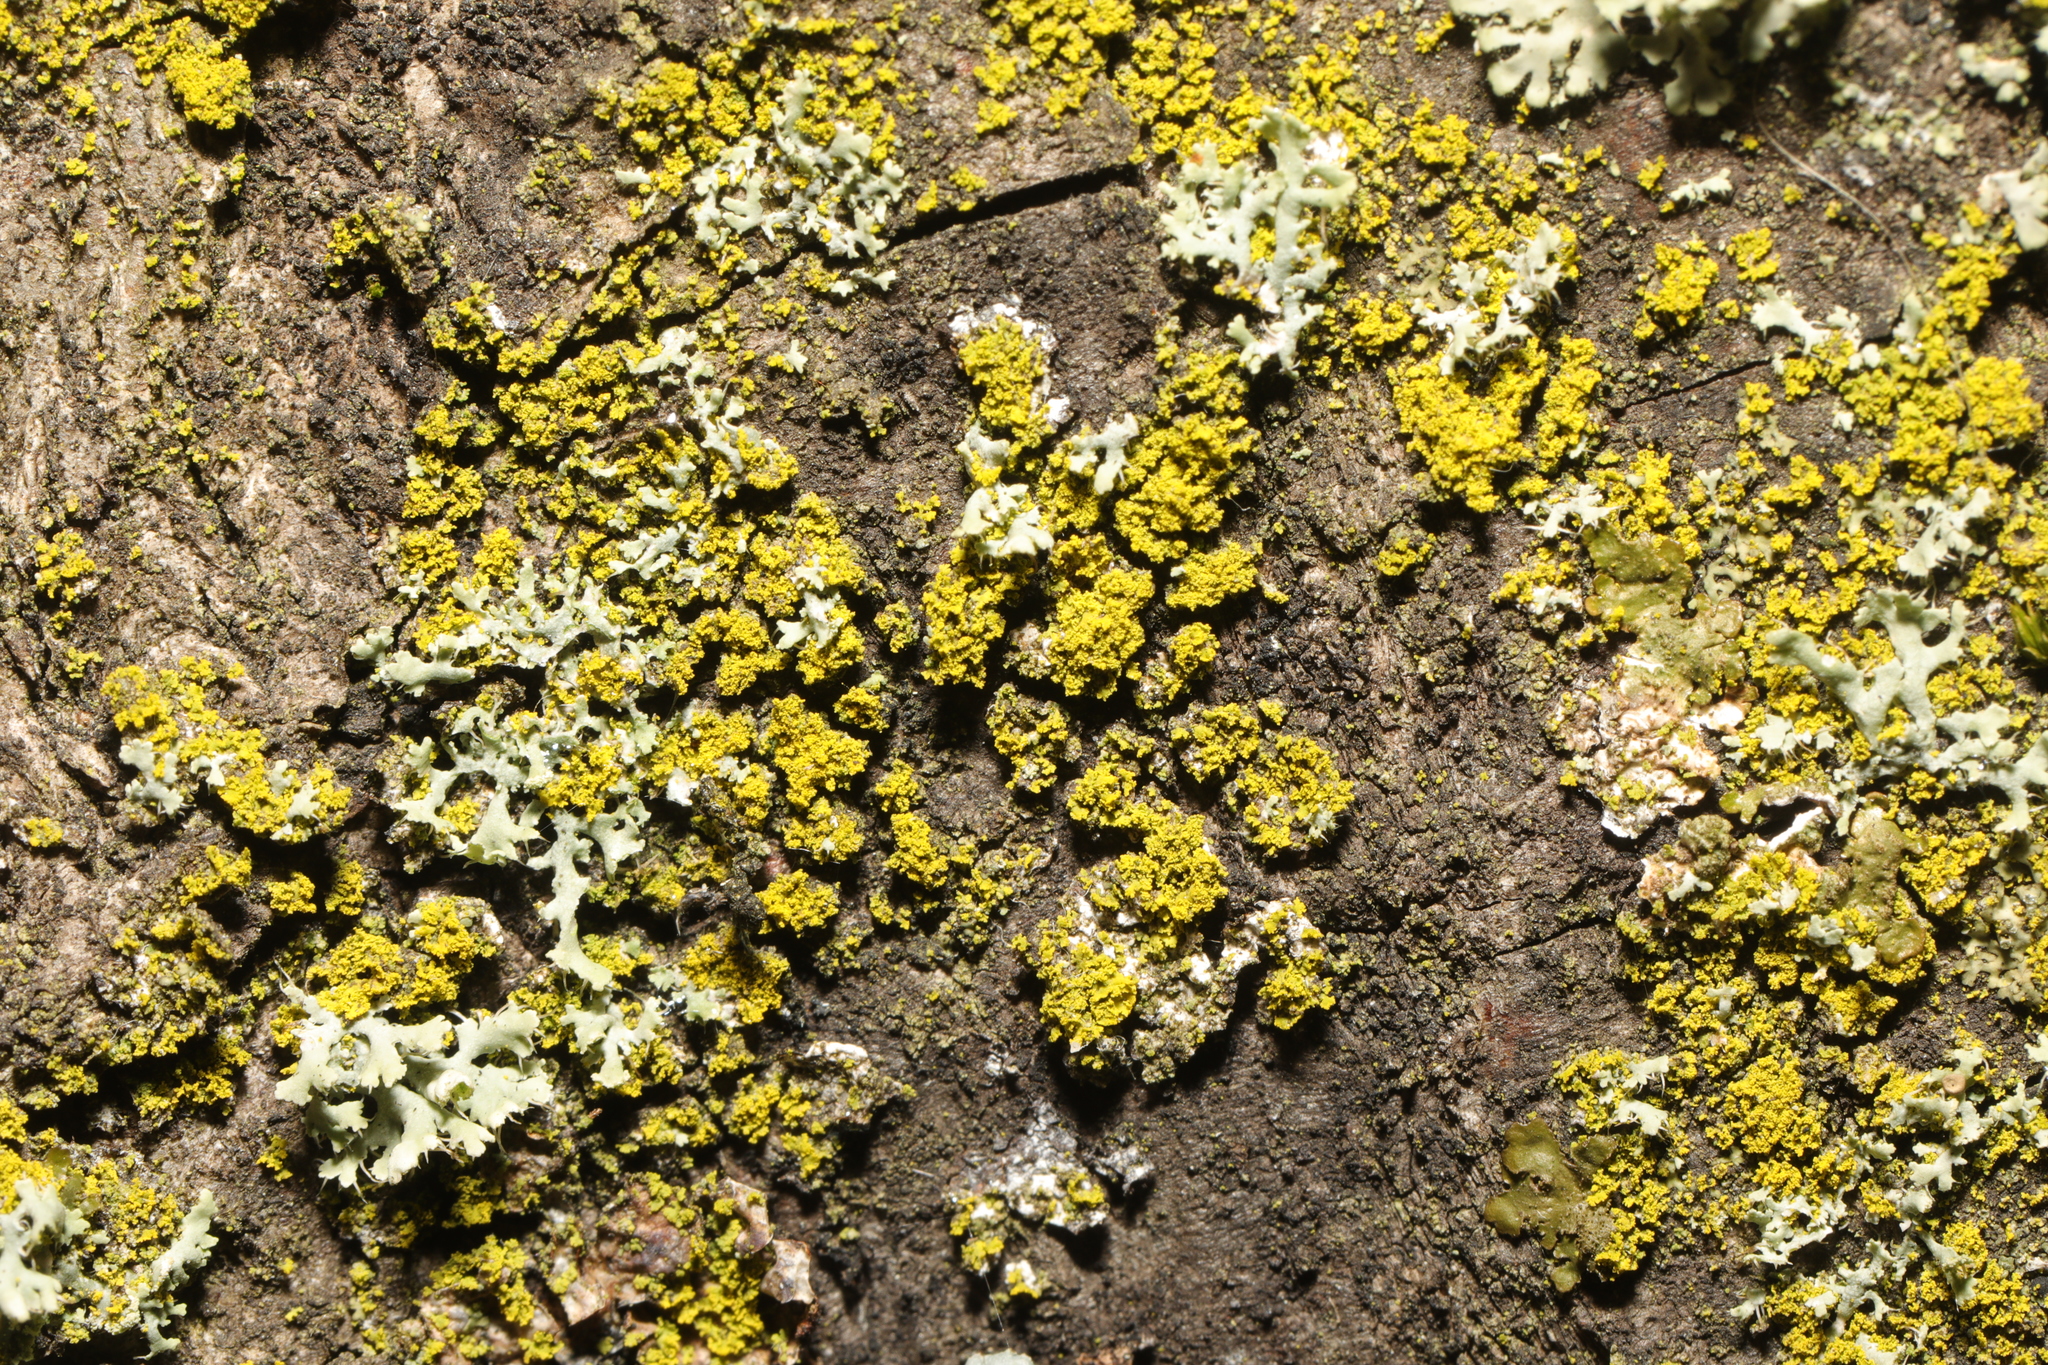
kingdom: Fungi
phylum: Ascomycota
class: Candelariomycetes
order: Candelariales
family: Candelariaceae
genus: Candelaria
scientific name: Candelaria concolor
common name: Candleflame lichen
